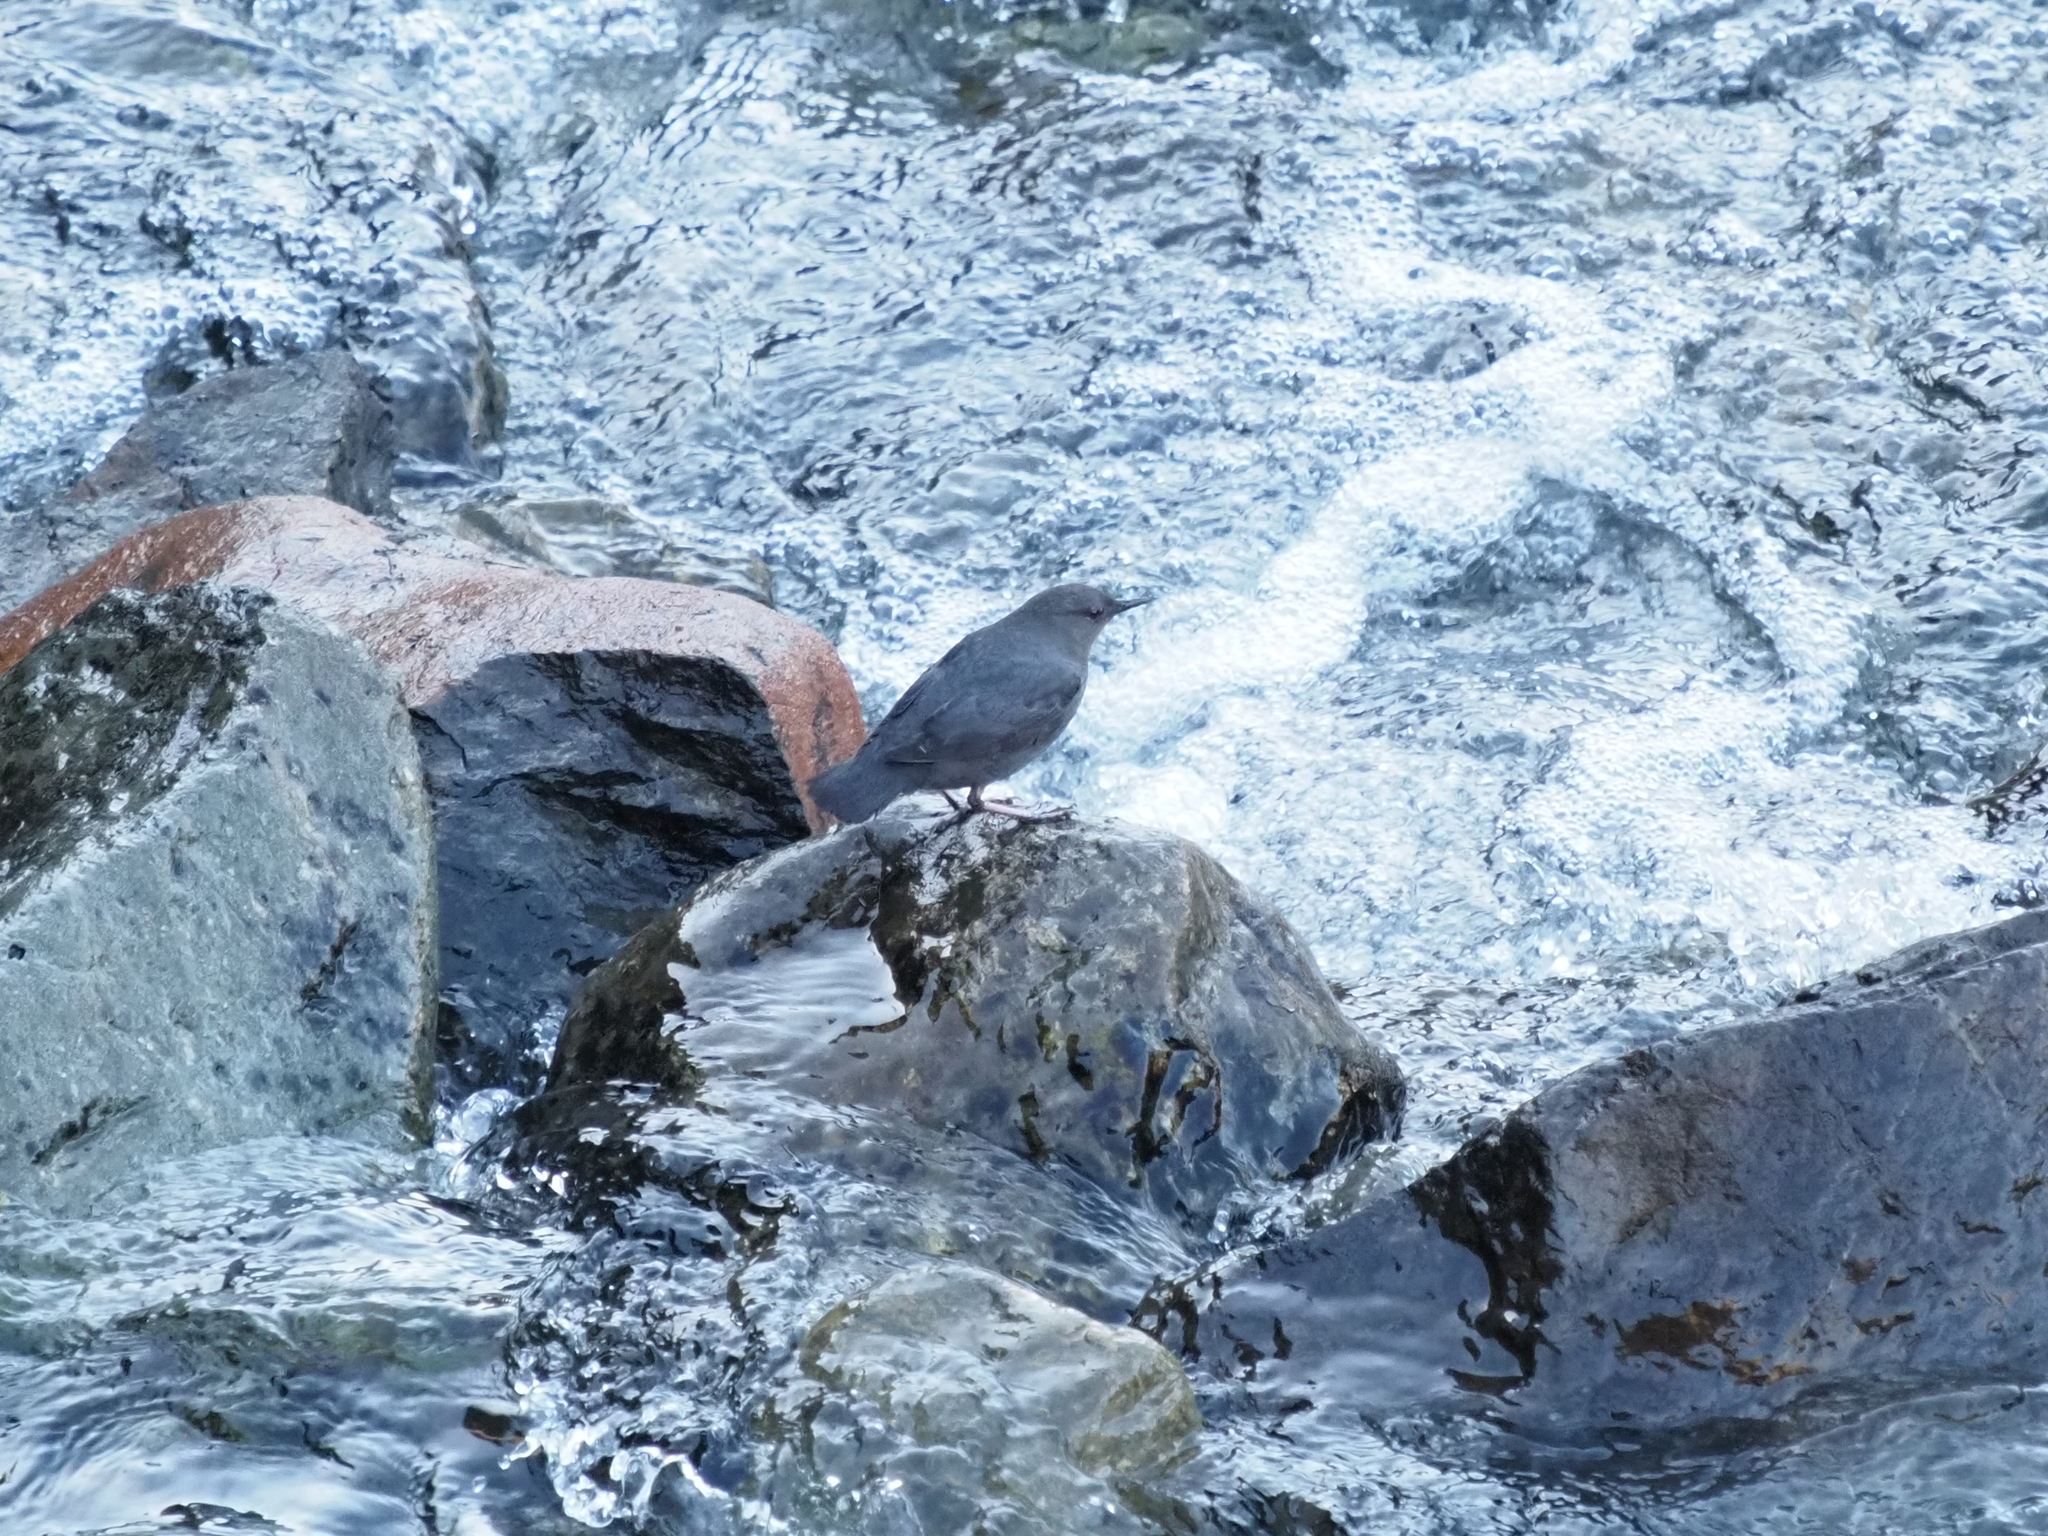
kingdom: Animalia
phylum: Chordata
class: Aves
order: Passeriformes
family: Cinclidae
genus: Cinclus
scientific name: Cinclus mexicanus
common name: American dipper
